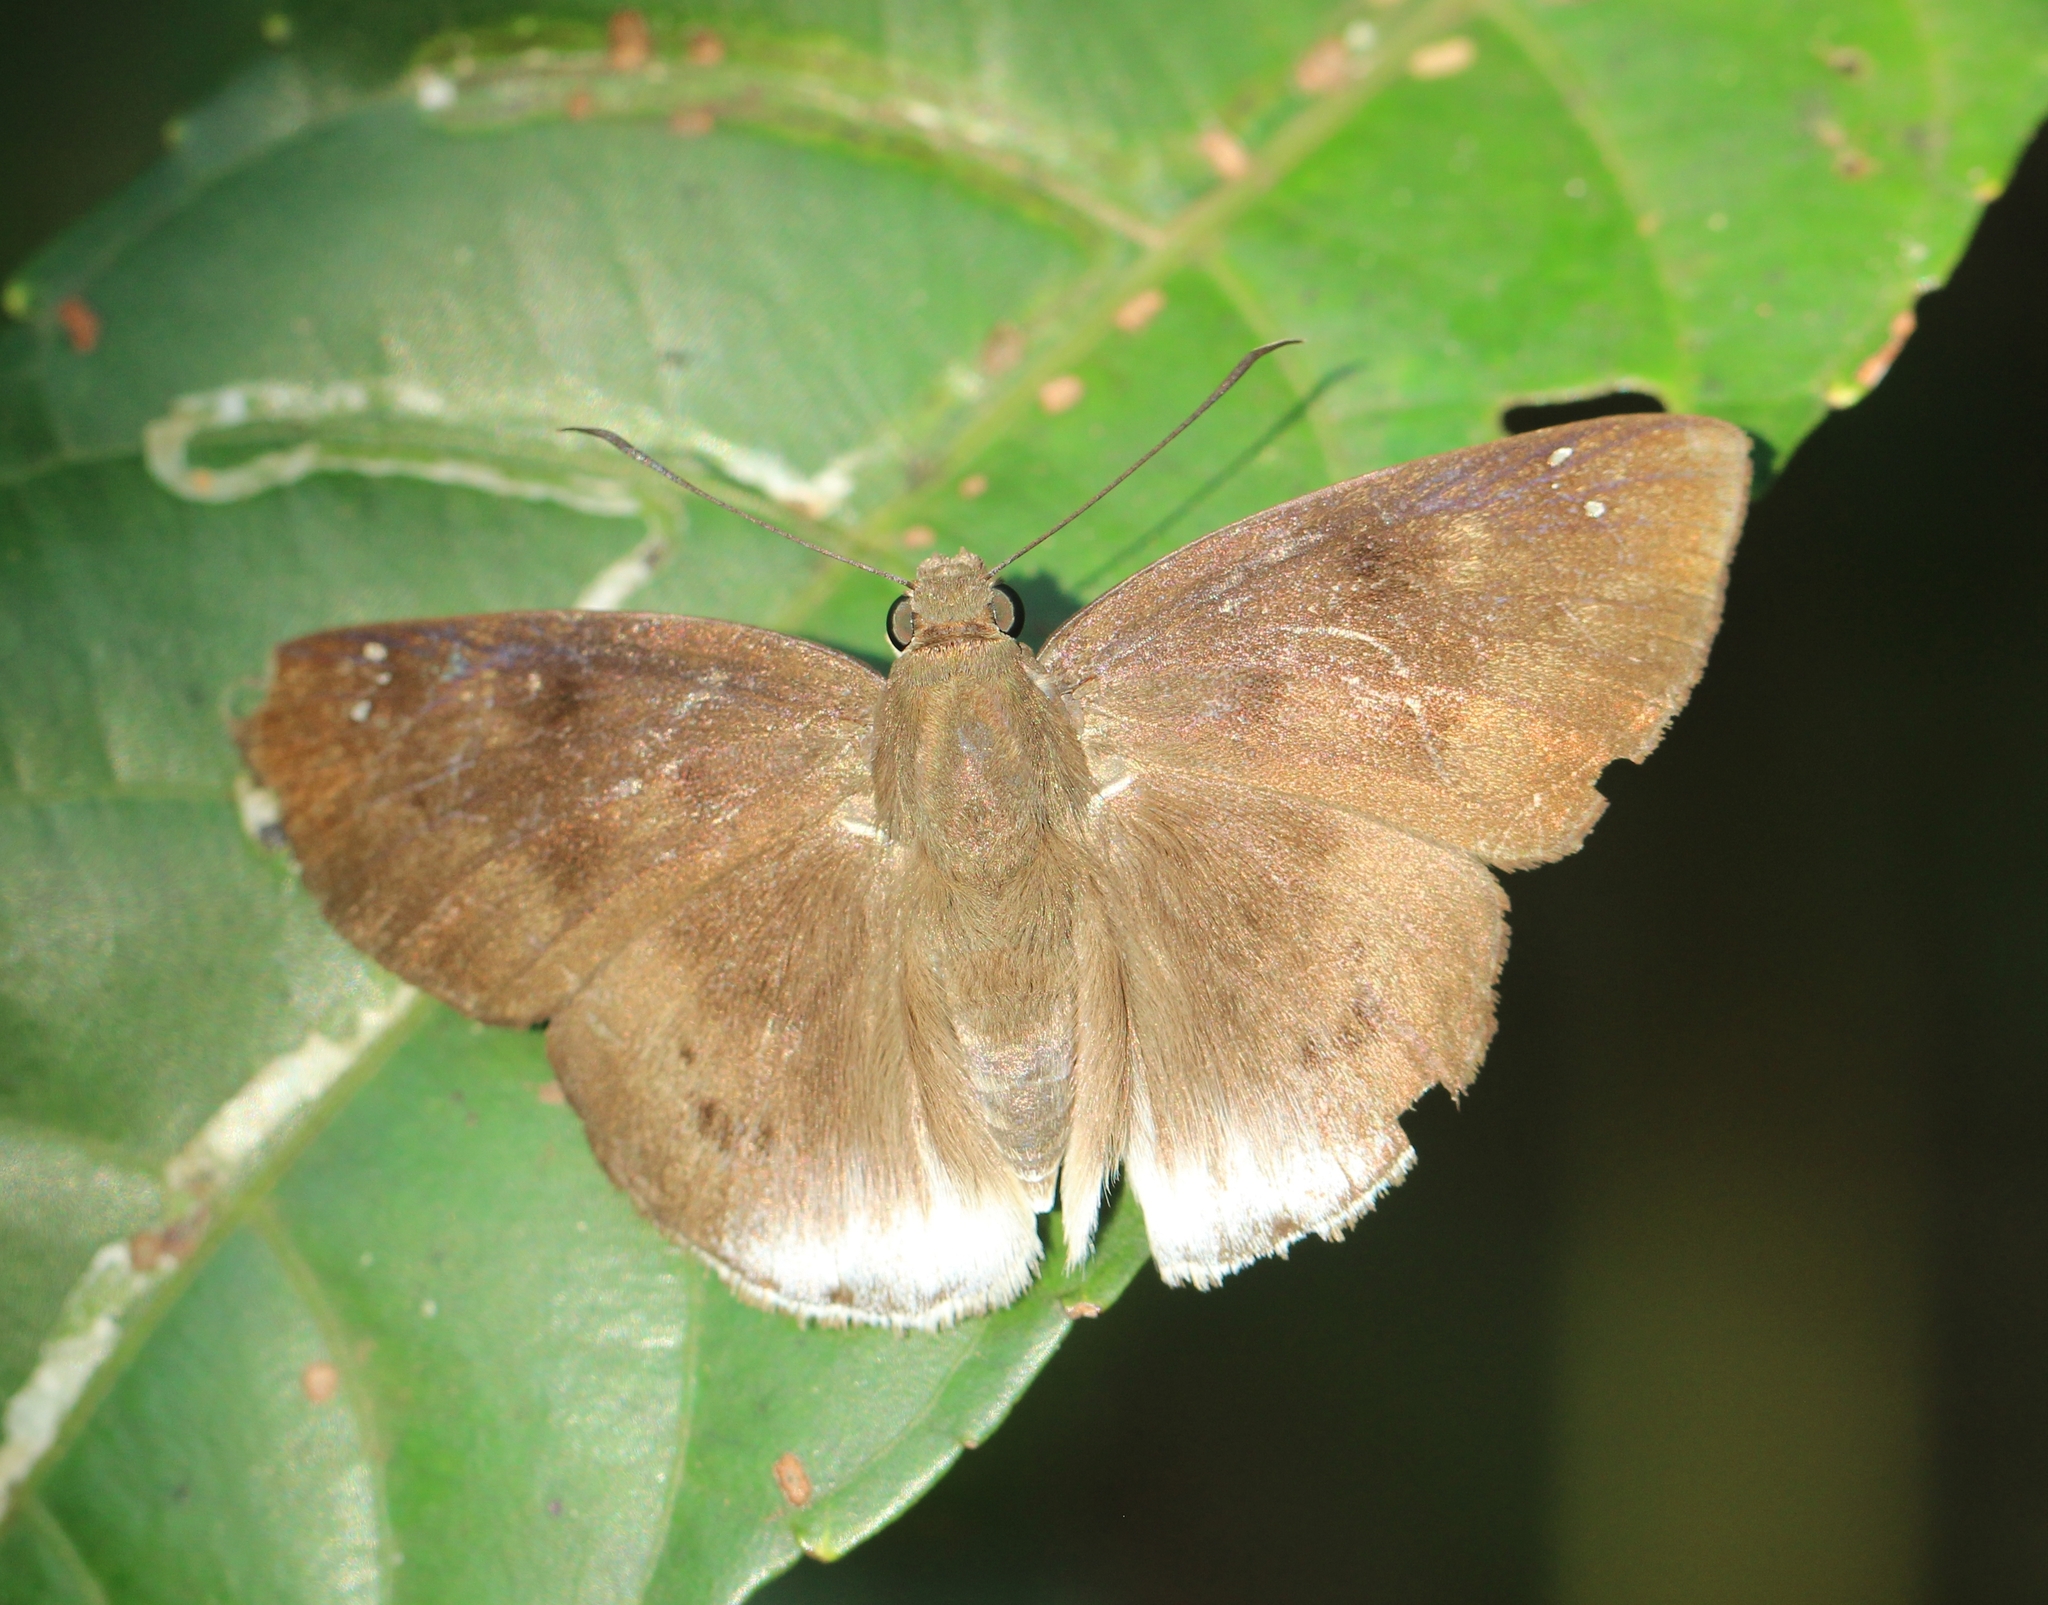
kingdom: Animalia
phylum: Arthropoda
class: Insecta
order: Lepidoptera
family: Hesperiidae
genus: Tagiades
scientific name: Tagiades gana
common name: Suffused snow flat
